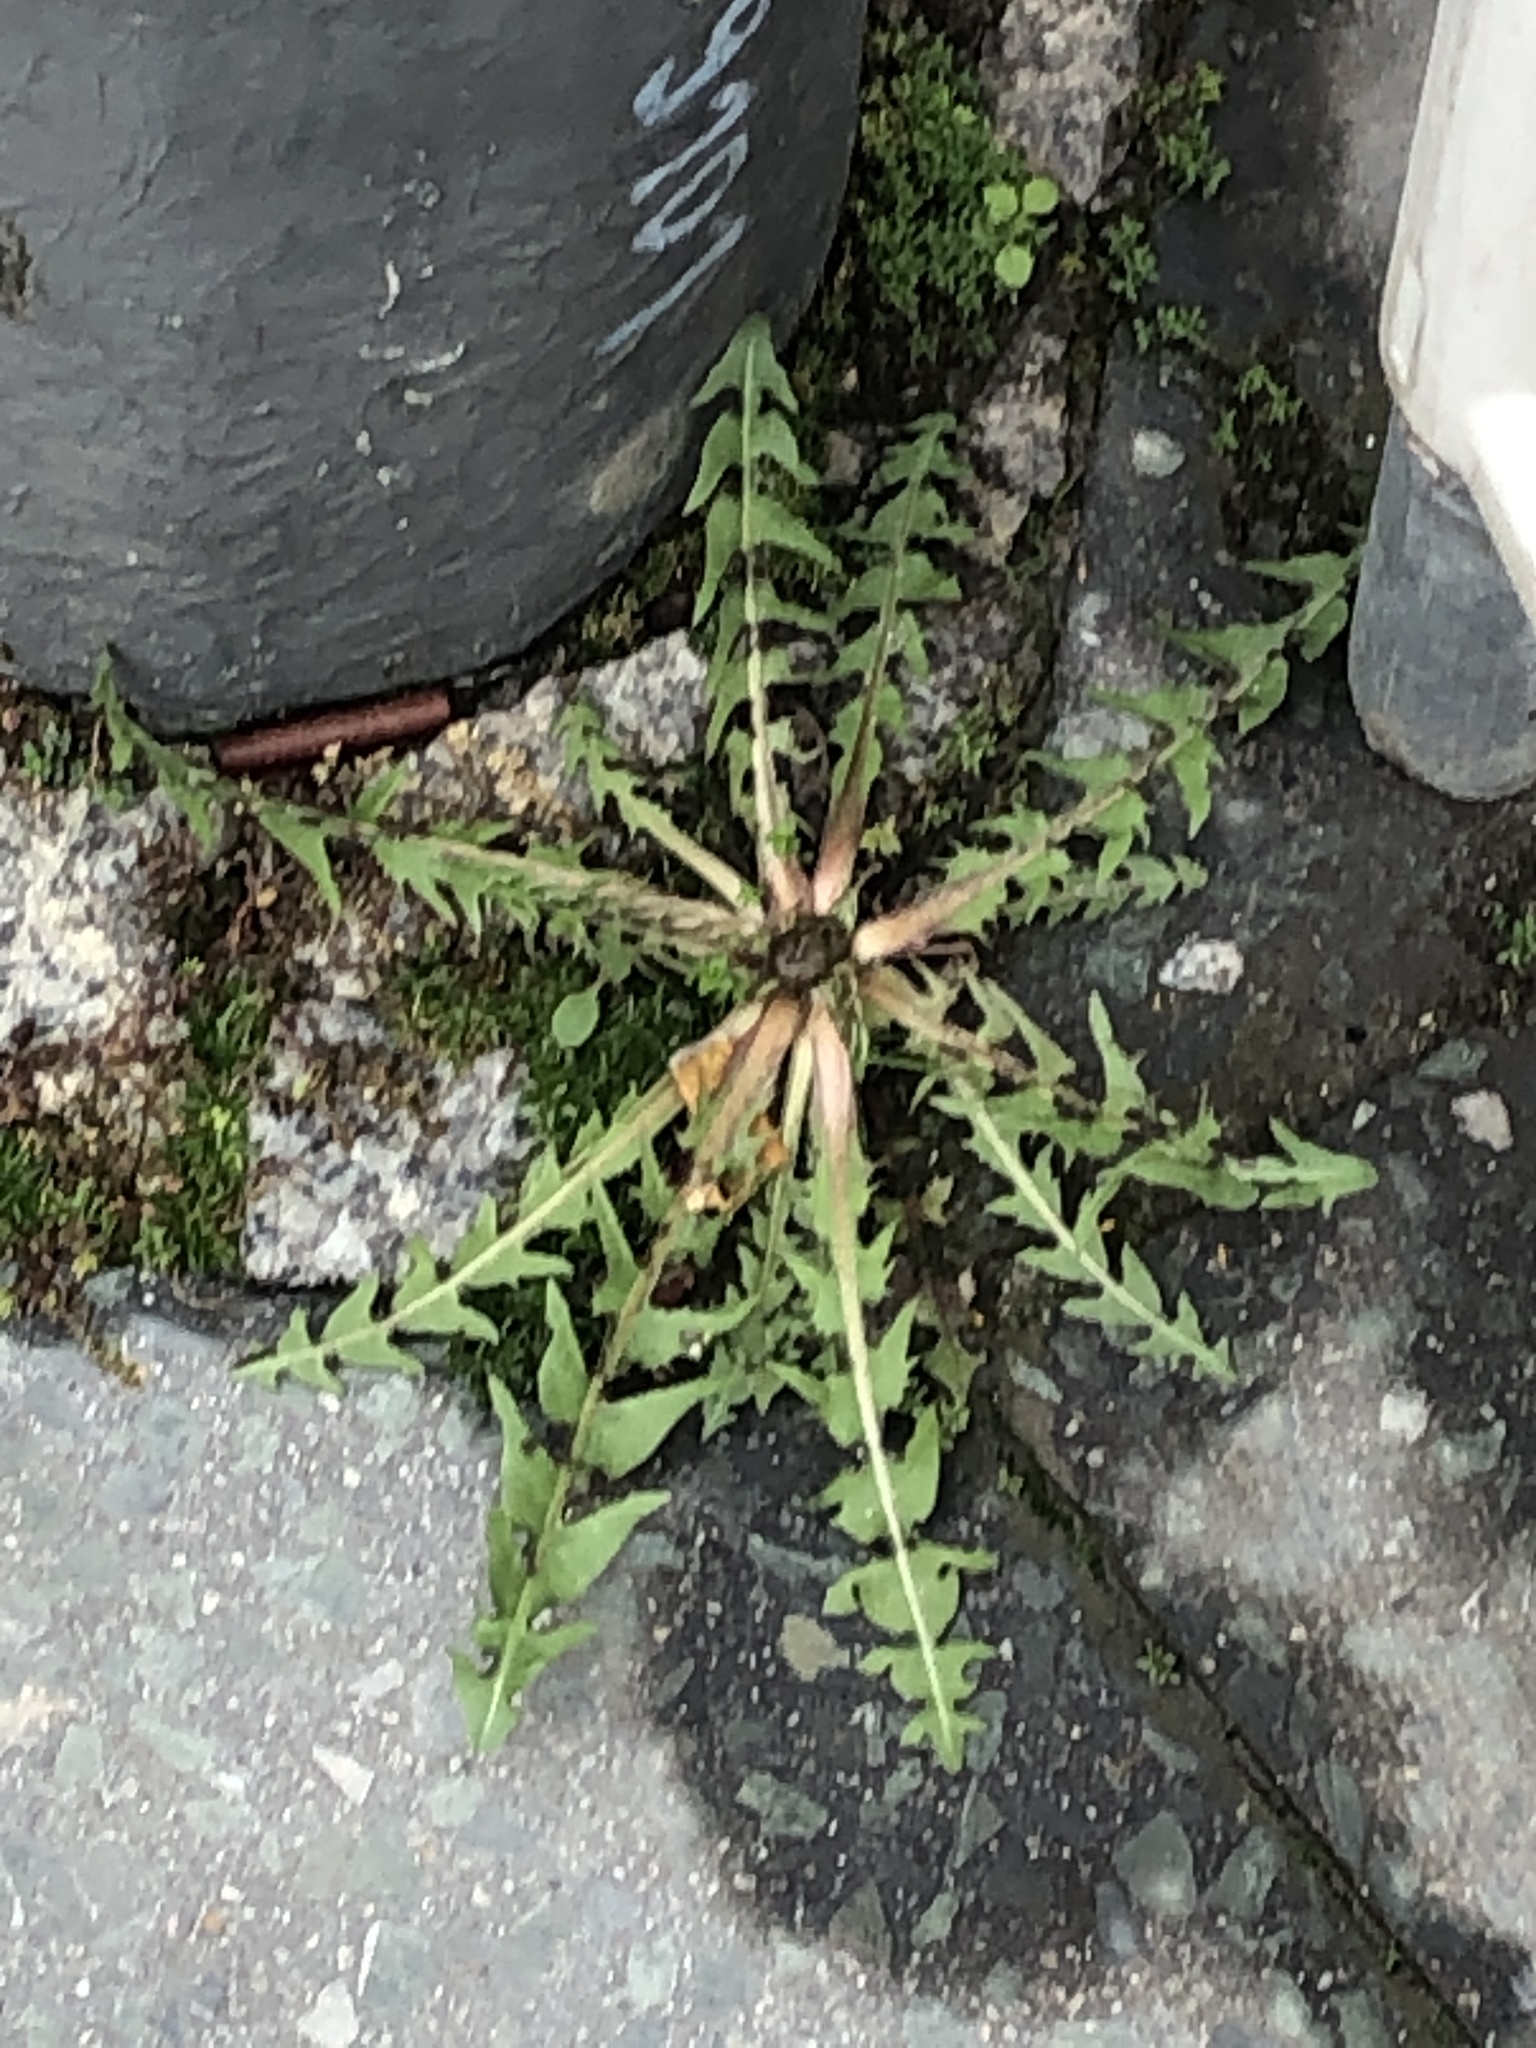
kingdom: Plantae
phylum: Tracheophyta
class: Magnoliopsida
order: Asterales
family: Asteraceae
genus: Taraxacum
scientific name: Taraxacum officinale
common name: Common dandelion
